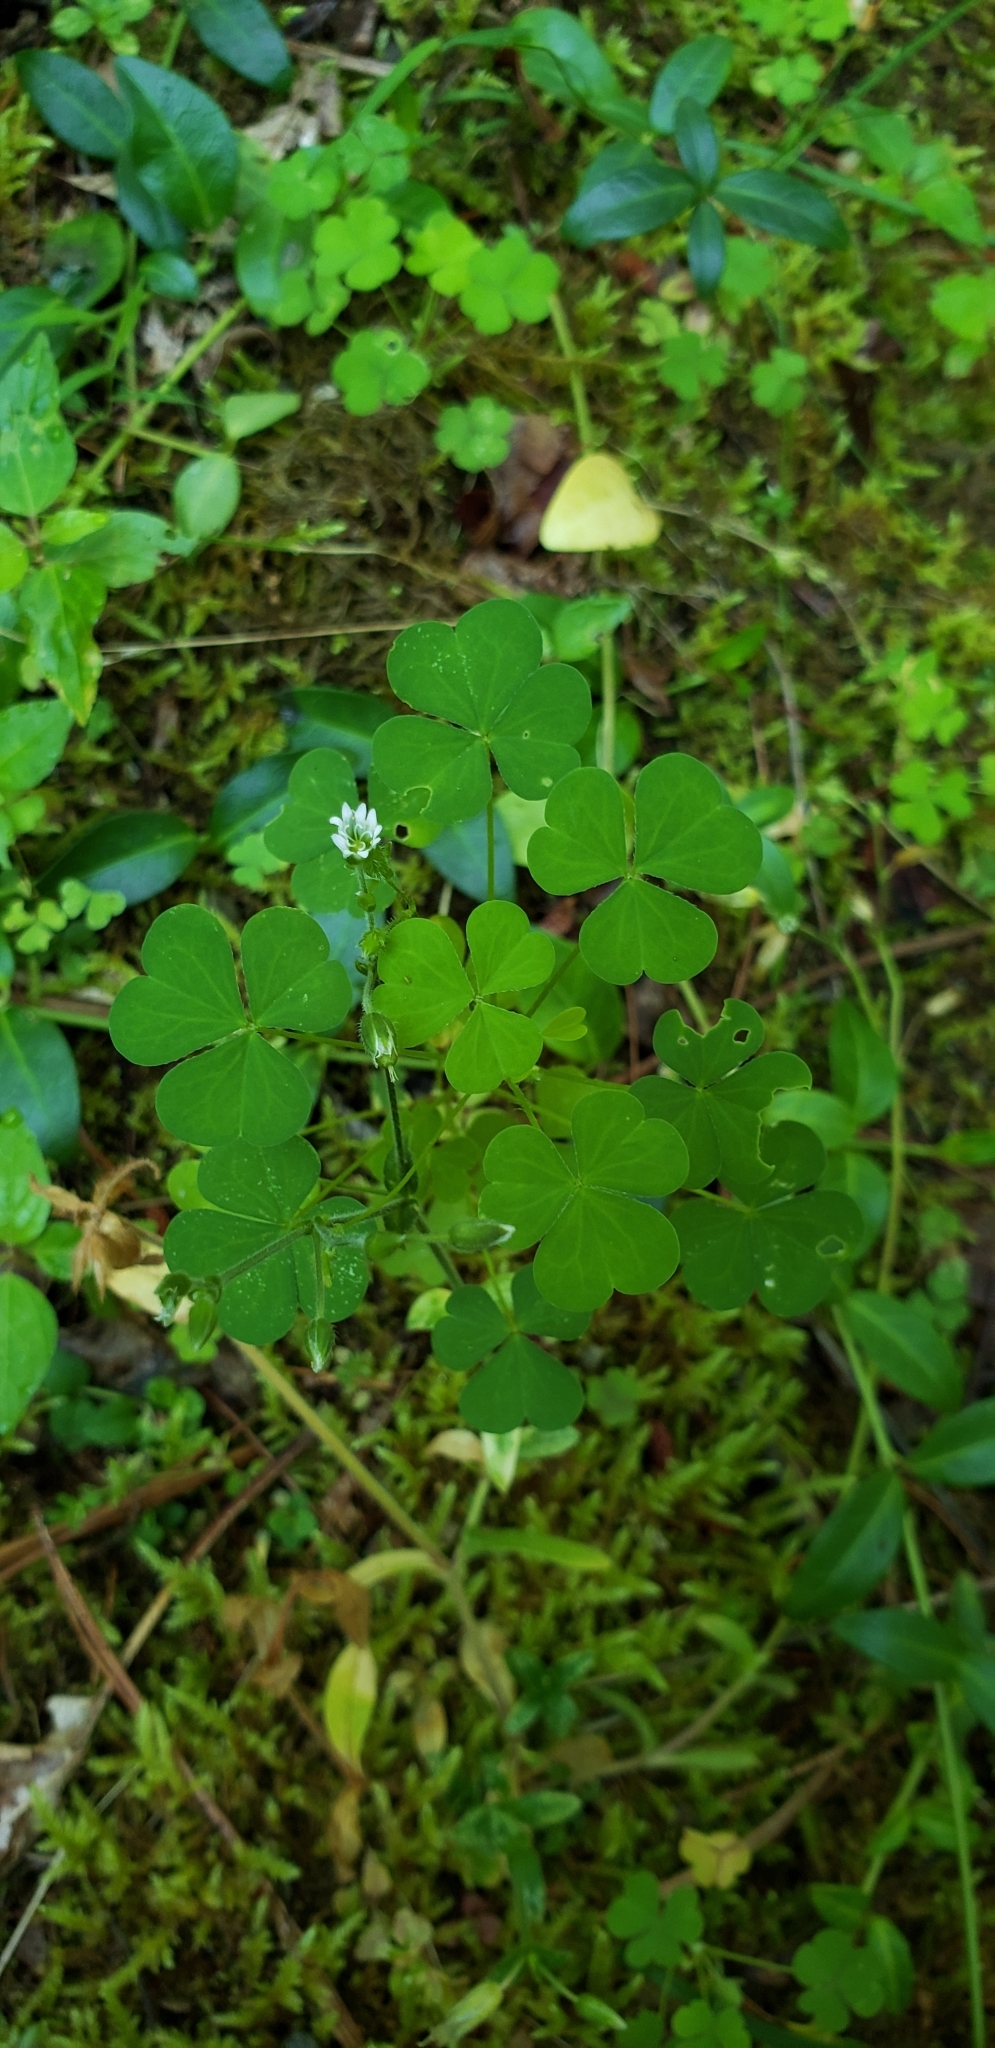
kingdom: Plantae
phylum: Tracheophyta
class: Magnoliopsida
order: Oxalidales
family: Oxalidaceae
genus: Oxalis
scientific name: Oxalis
